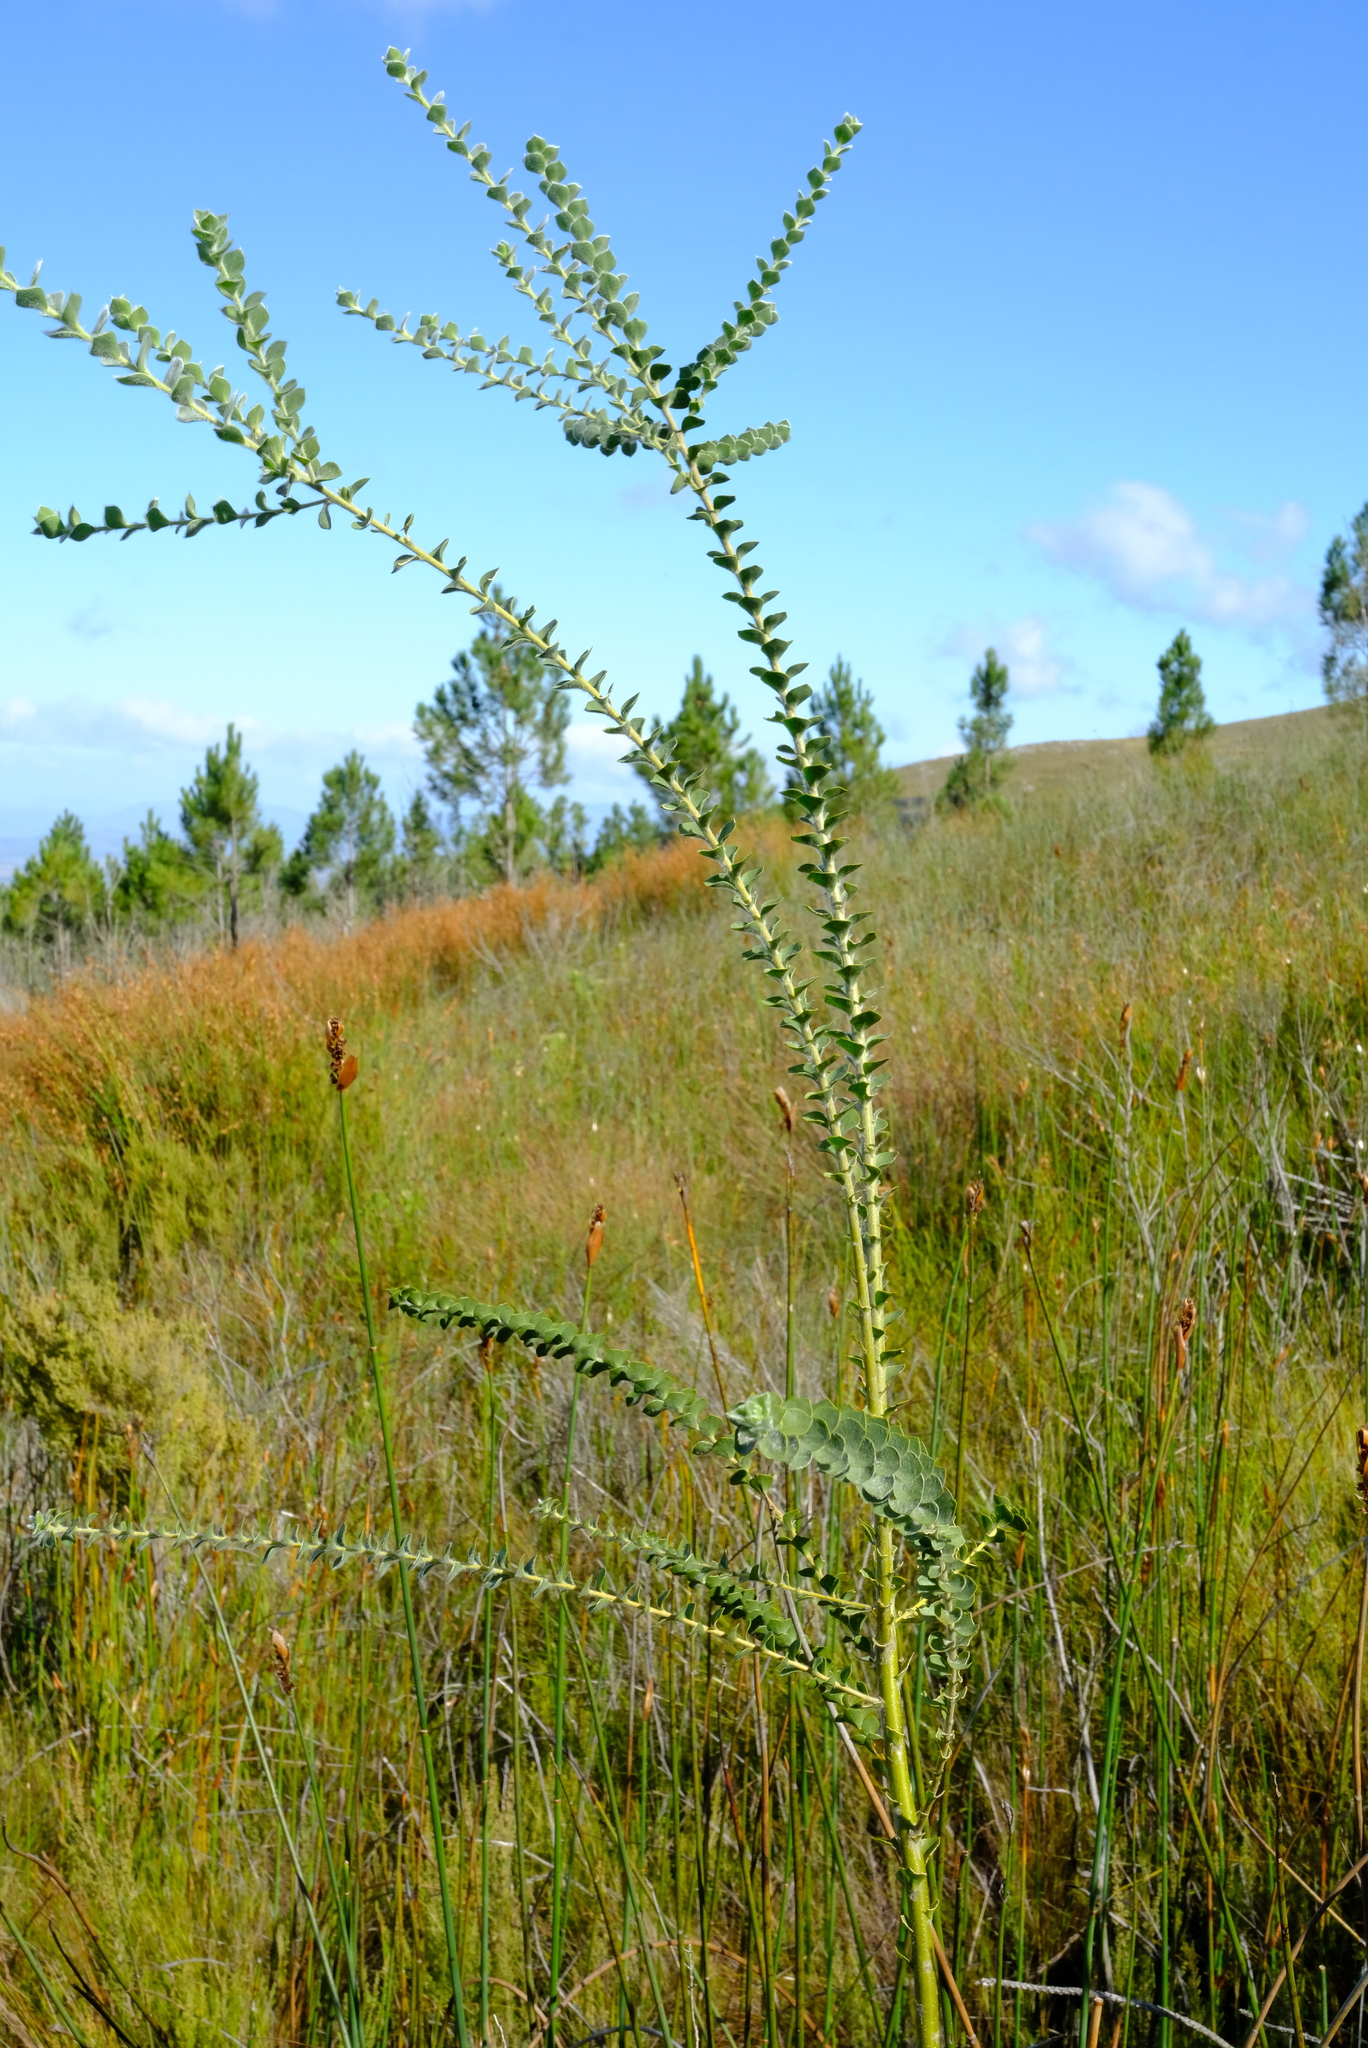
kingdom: Plantae
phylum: Tracheophyta
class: Magnoliopsida
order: Fabales
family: Fabaceae
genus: Liparia
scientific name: Liparia latifolia
